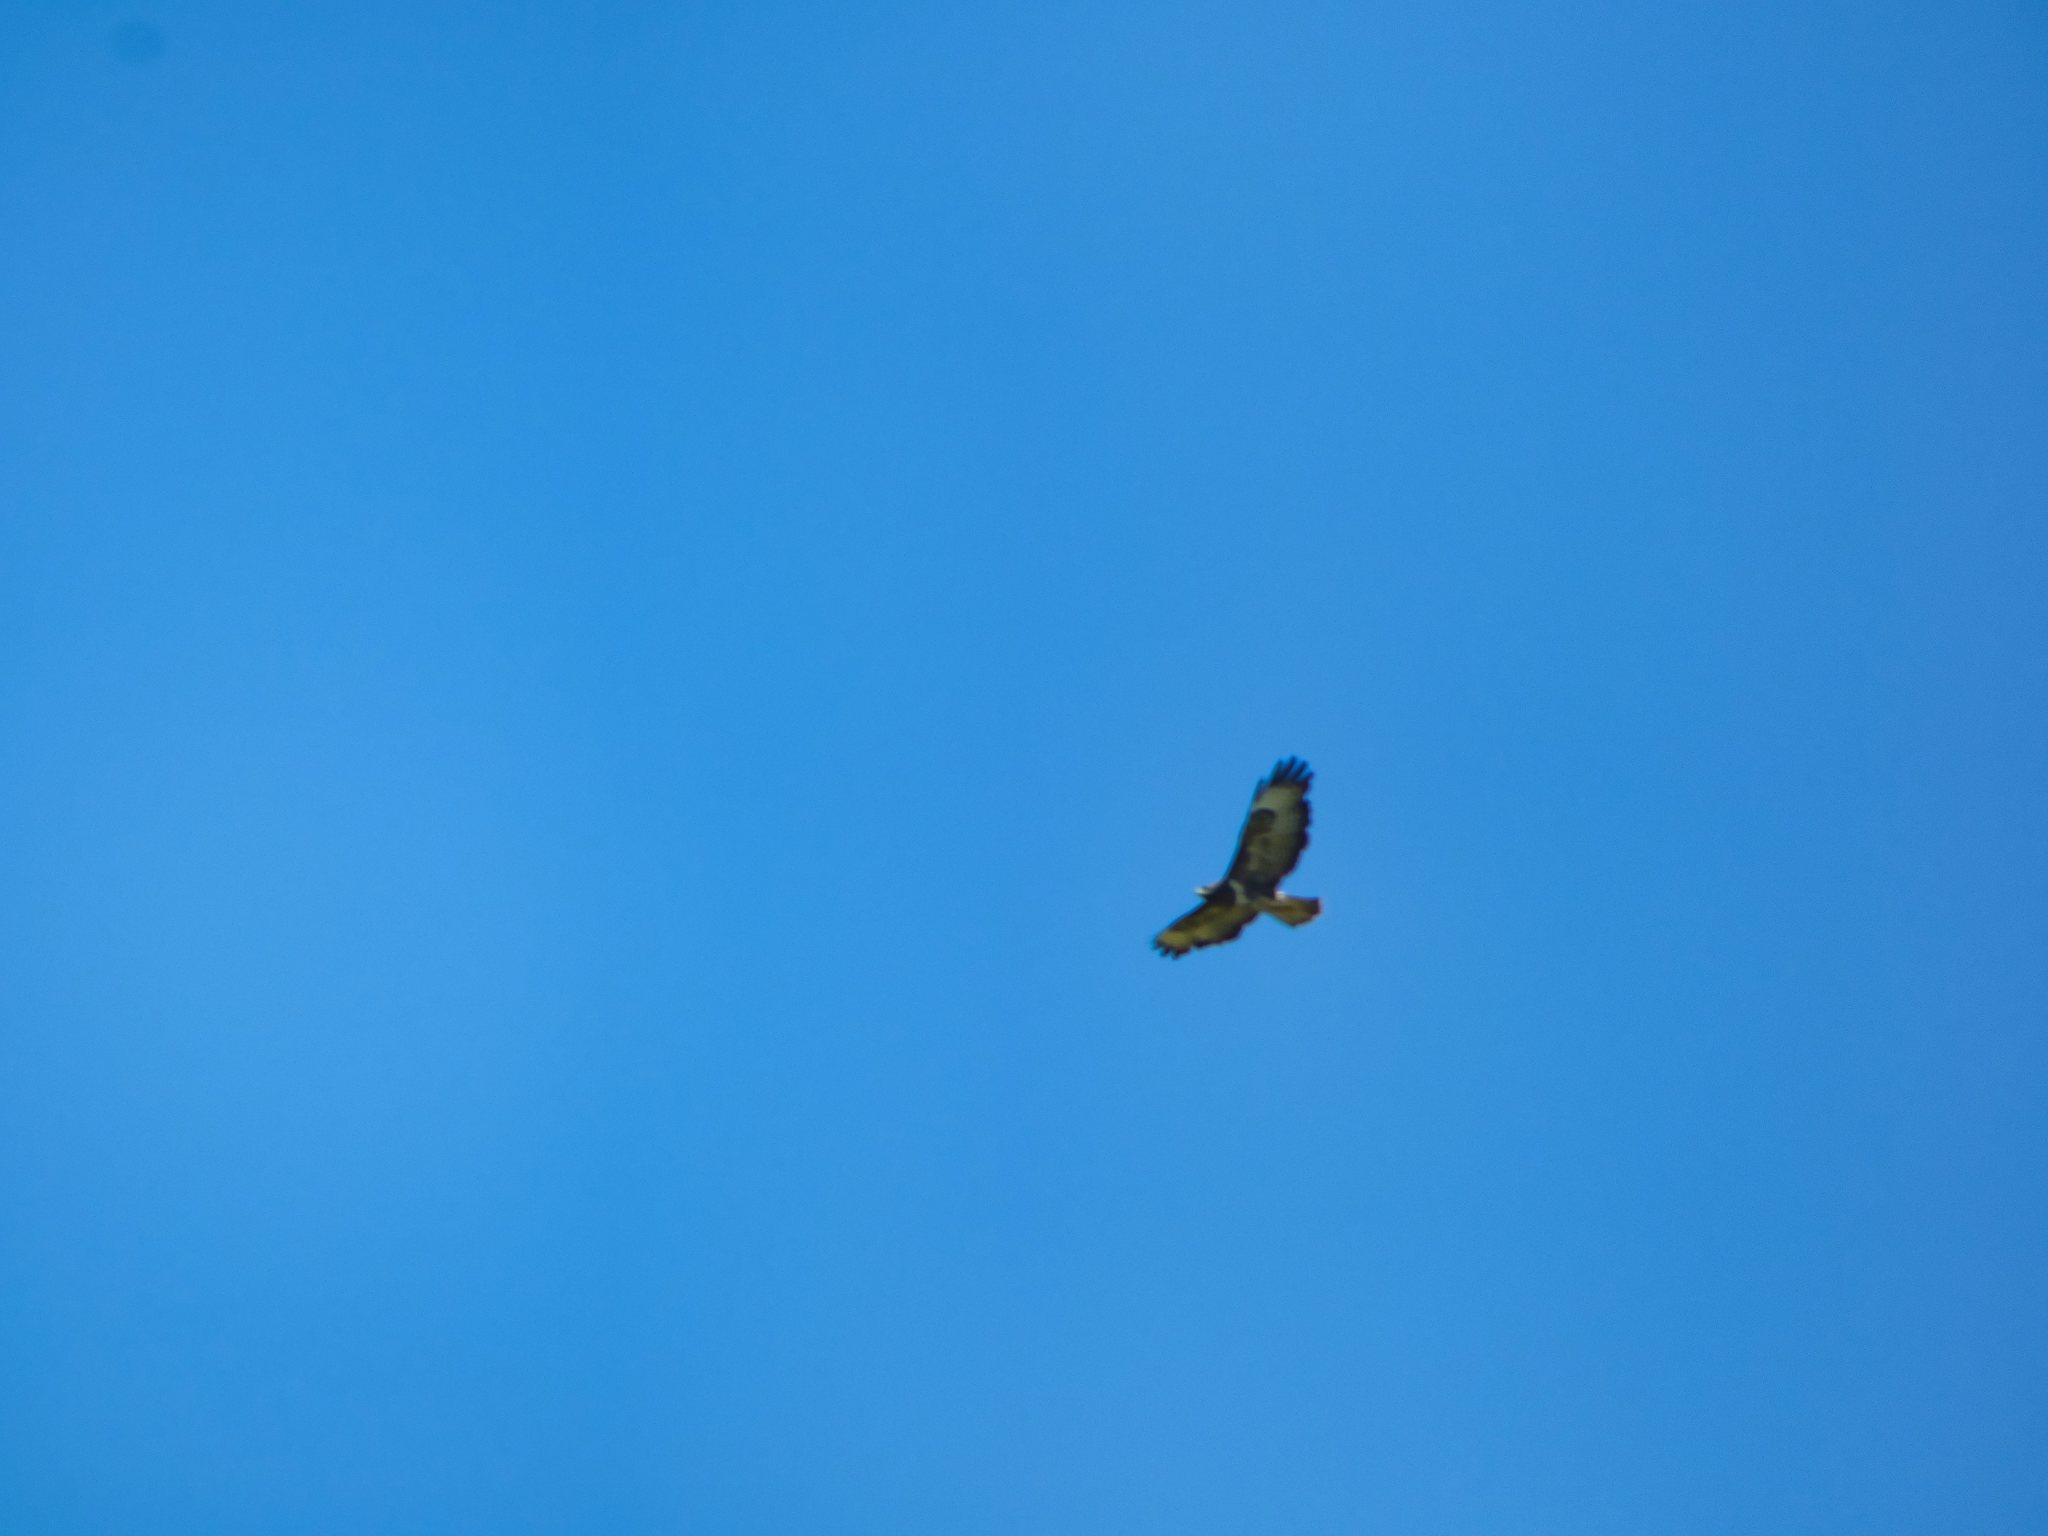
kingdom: Animalia
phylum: Chordata
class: Aves
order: Accipitriformes
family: Accipitridae
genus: Buteo
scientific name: Buteo buteo
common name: Common buzzard
